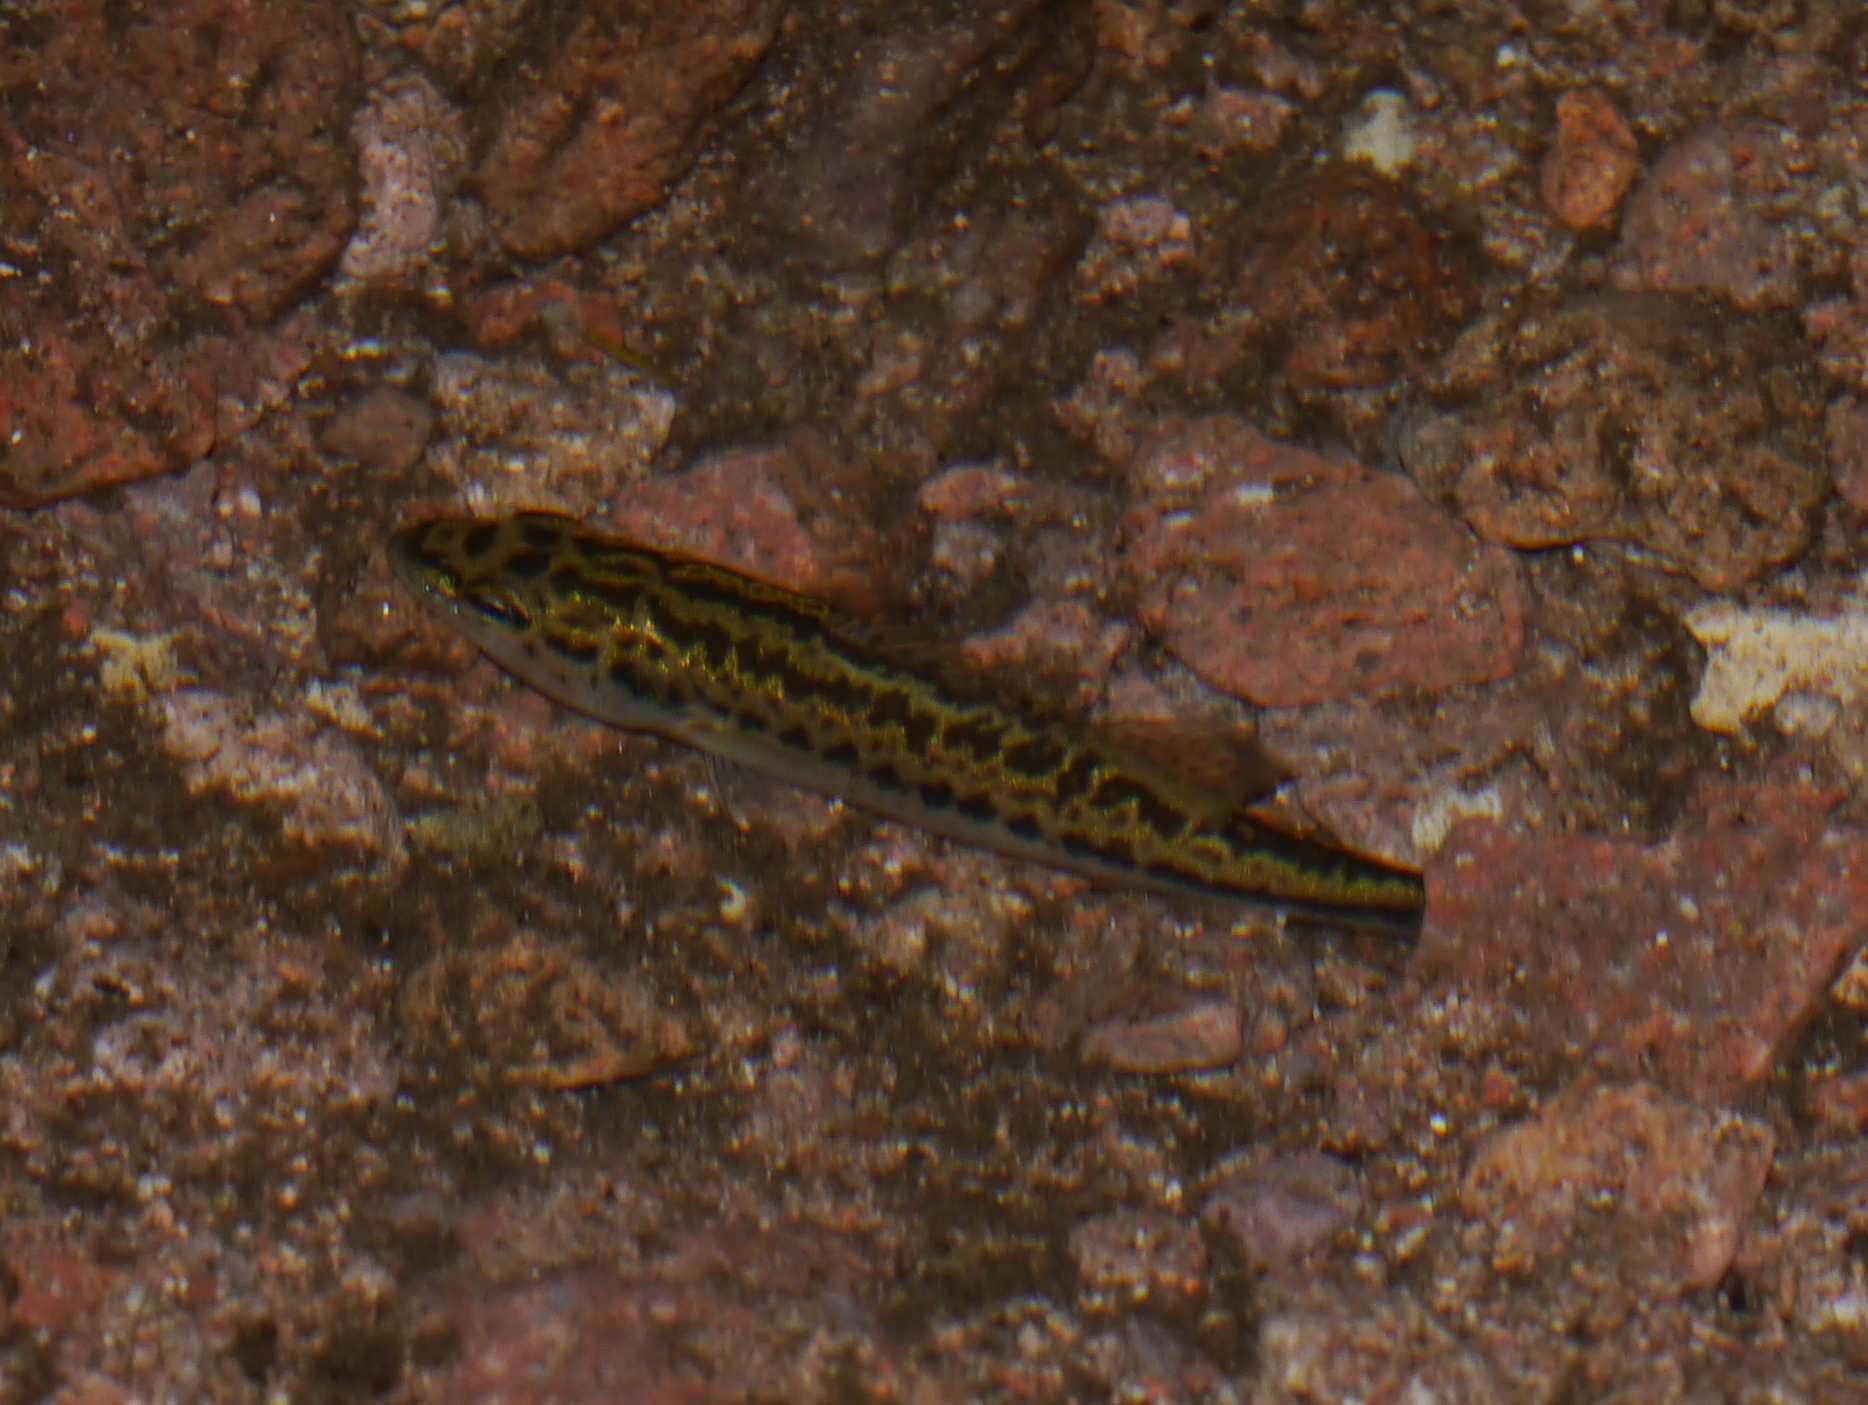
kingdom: Animalia
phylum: Chordata
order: Perciformes
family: Centrarchidae
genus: Micropterus
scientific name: Micropterus
